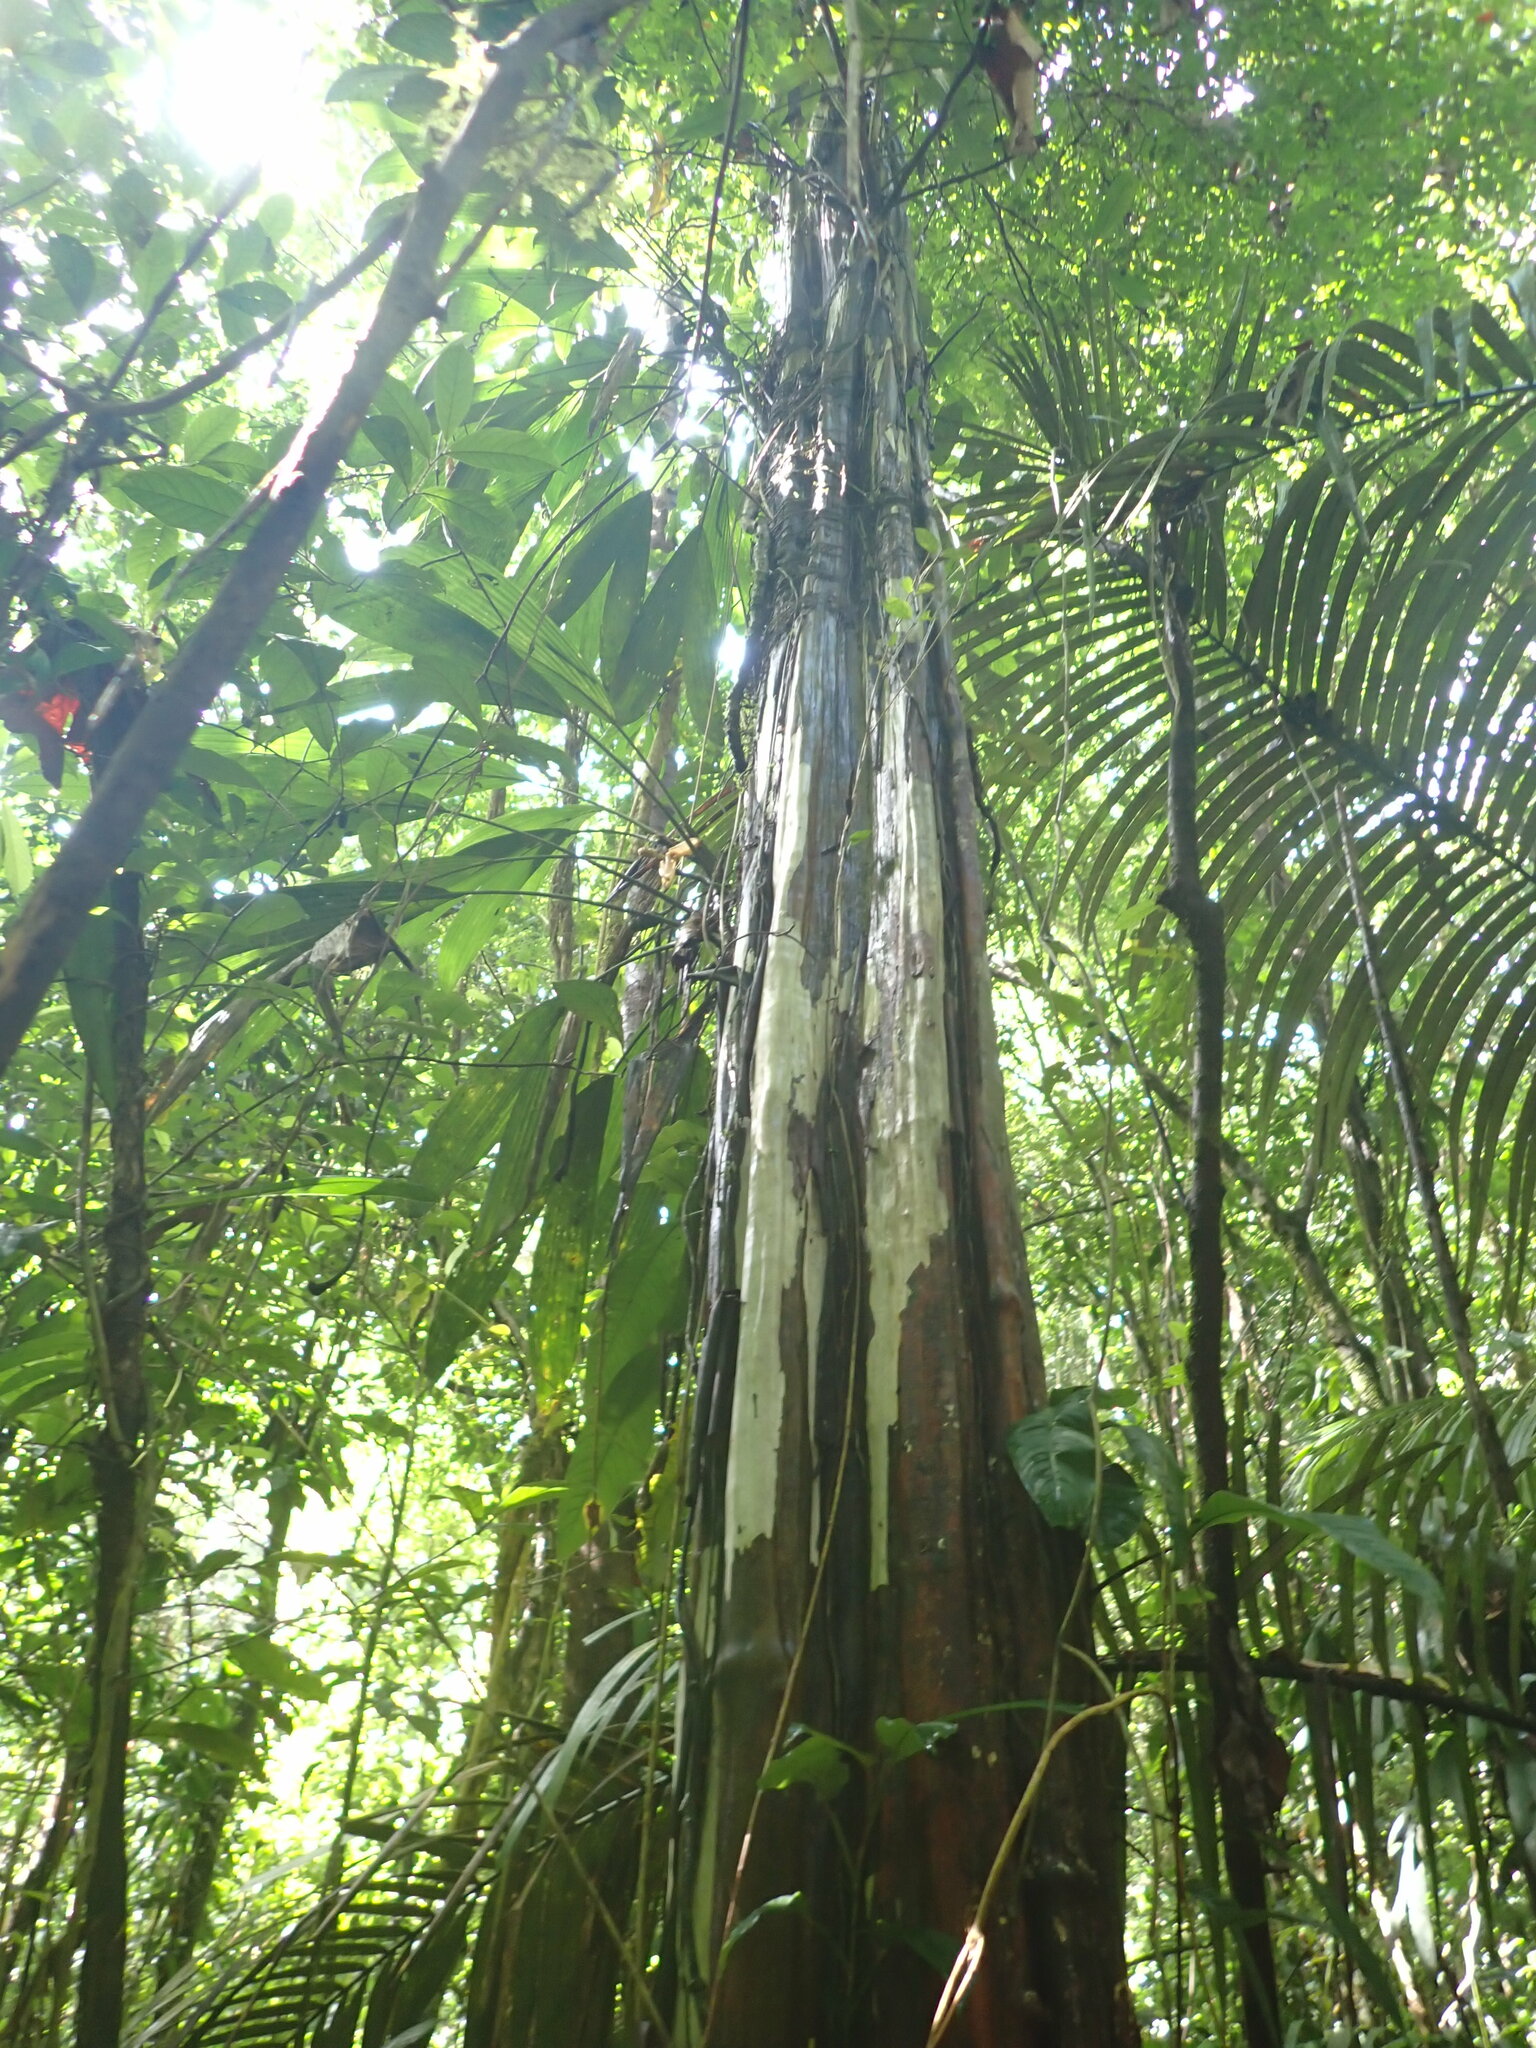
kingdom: Plantae
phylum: Tracheophyta
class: Magnoliopsida
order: Myrtales
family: Myrtaceae
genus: Eugenia
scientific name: Eugenia tetramera
